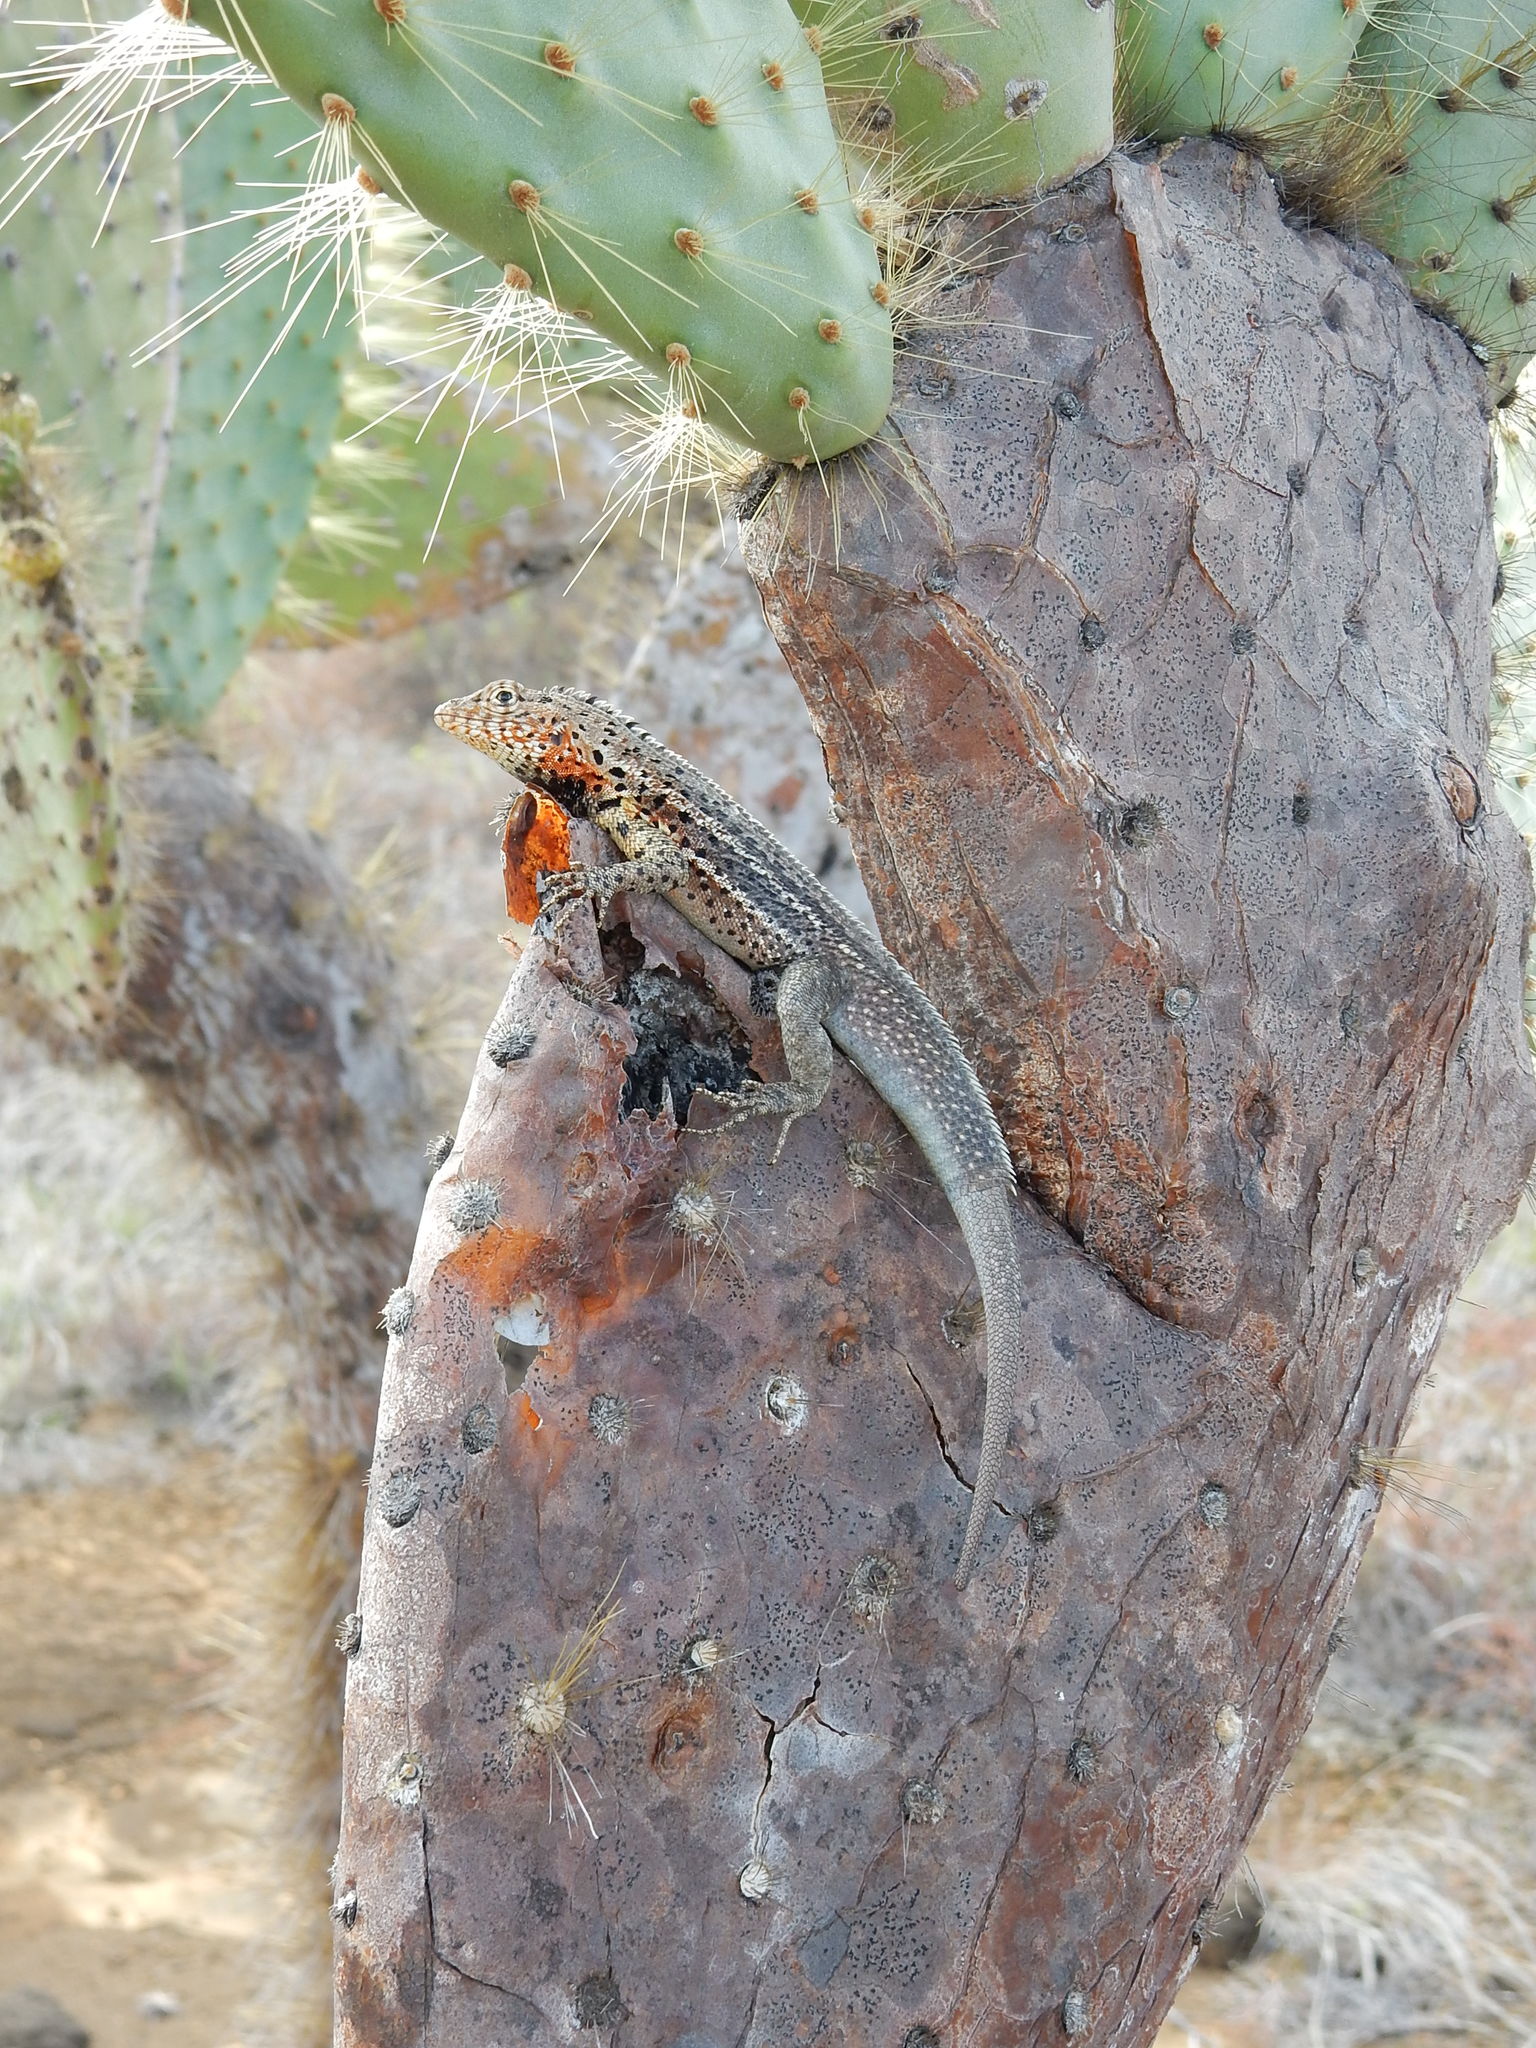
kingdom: Animalia
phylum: Chordata
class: Squamata
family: Tropiduridae
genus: Microlophus
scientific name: Microlophus jacobii
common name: Santiago lava lizard
